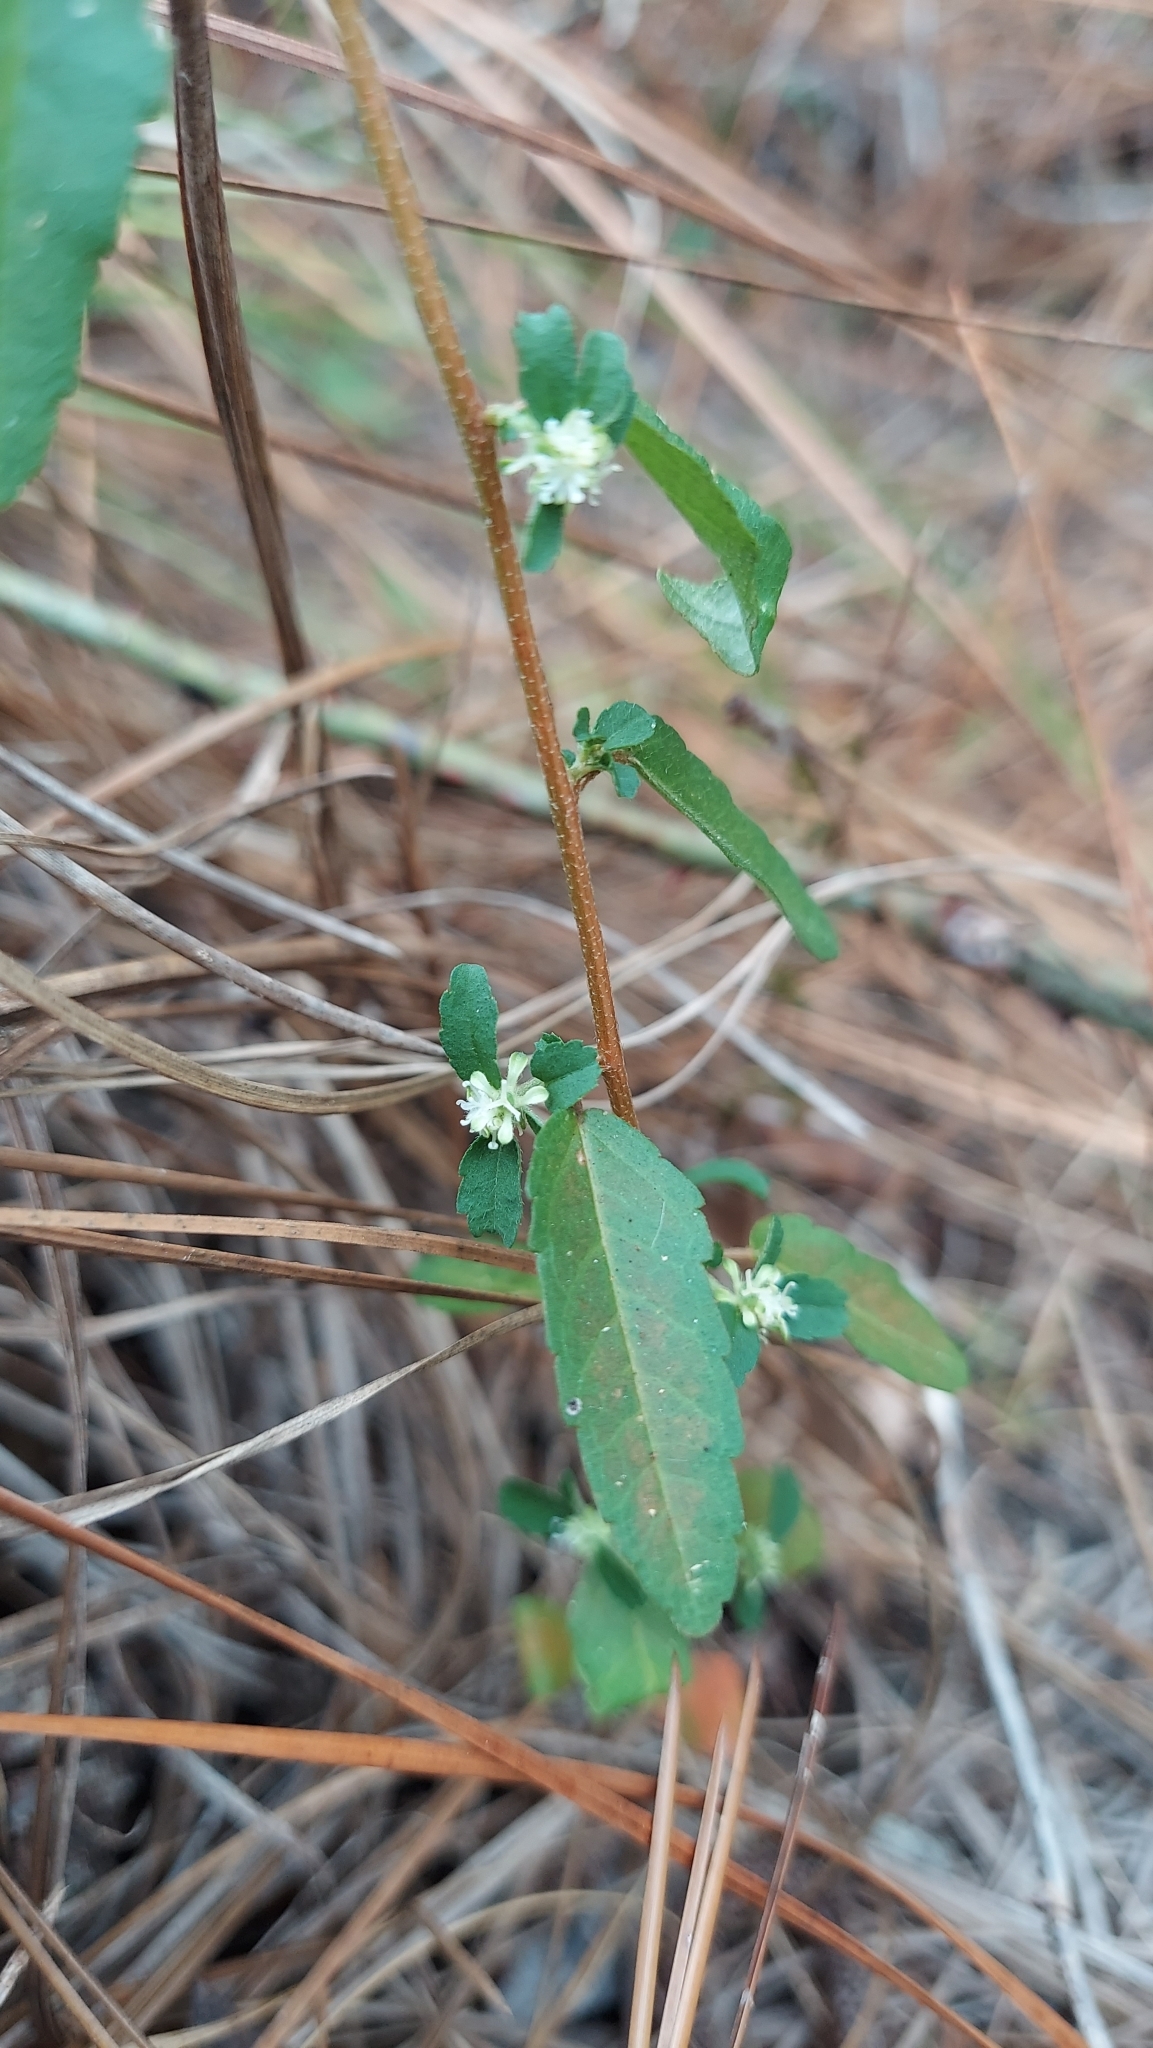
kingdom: Plantae
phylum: Tracheophyta
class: Magnoliopsida
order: Malpighiales
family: Euphorbiaceae
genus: Croton
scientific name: Croton glandulosus
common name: Tropic croton
